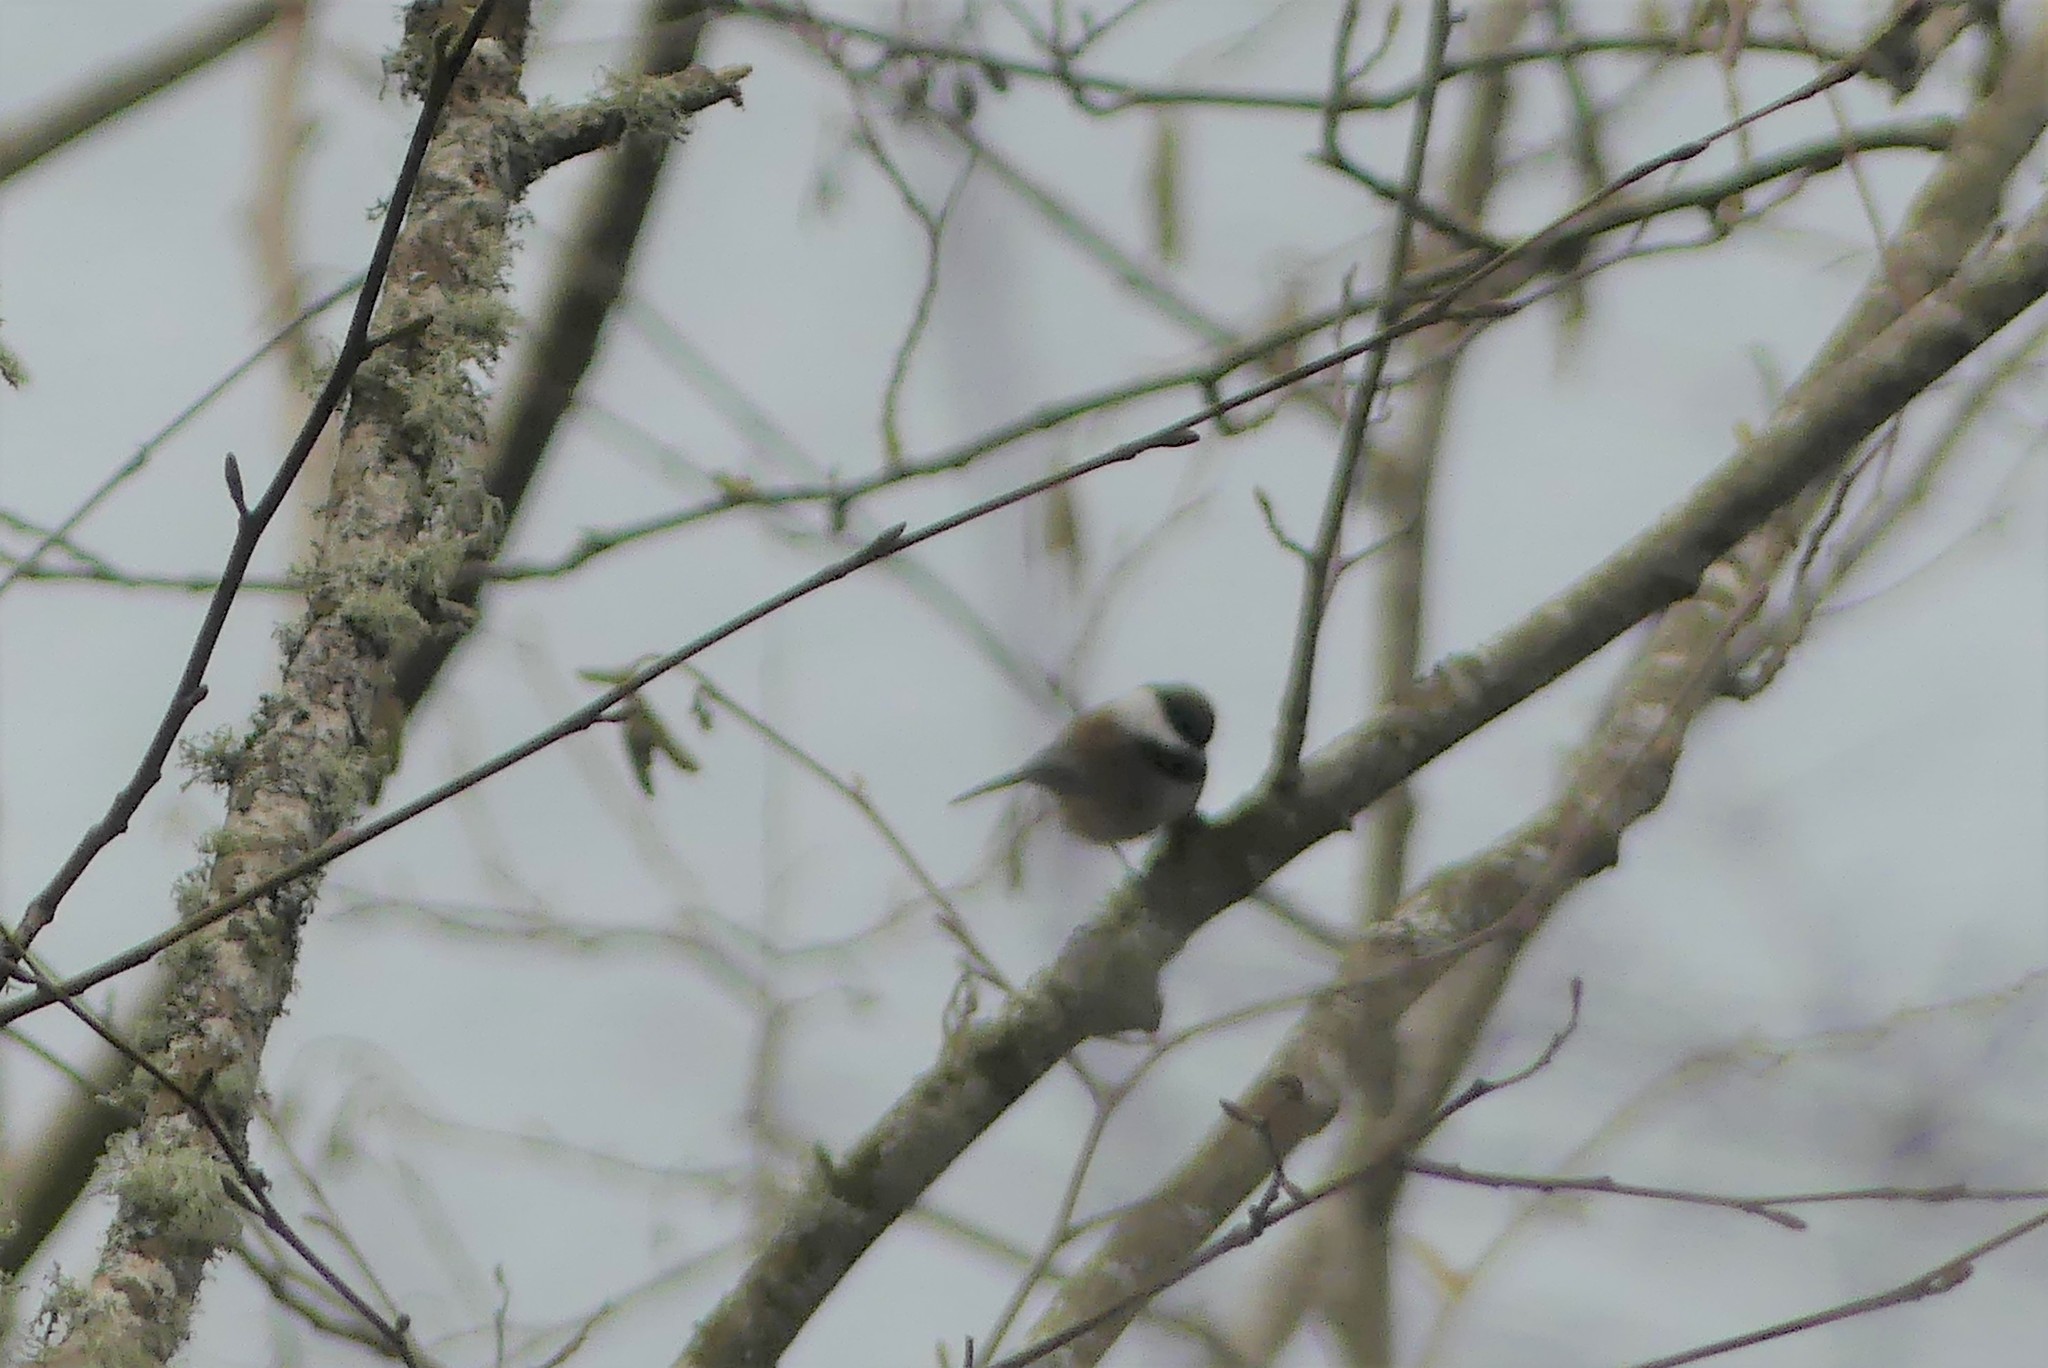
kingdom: Animalia
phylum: Chordata
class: Aves
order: Passeriformes
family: Paridae
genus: Poecile
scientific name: Poecile rufescens
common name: Chestnut-backed chickadee
